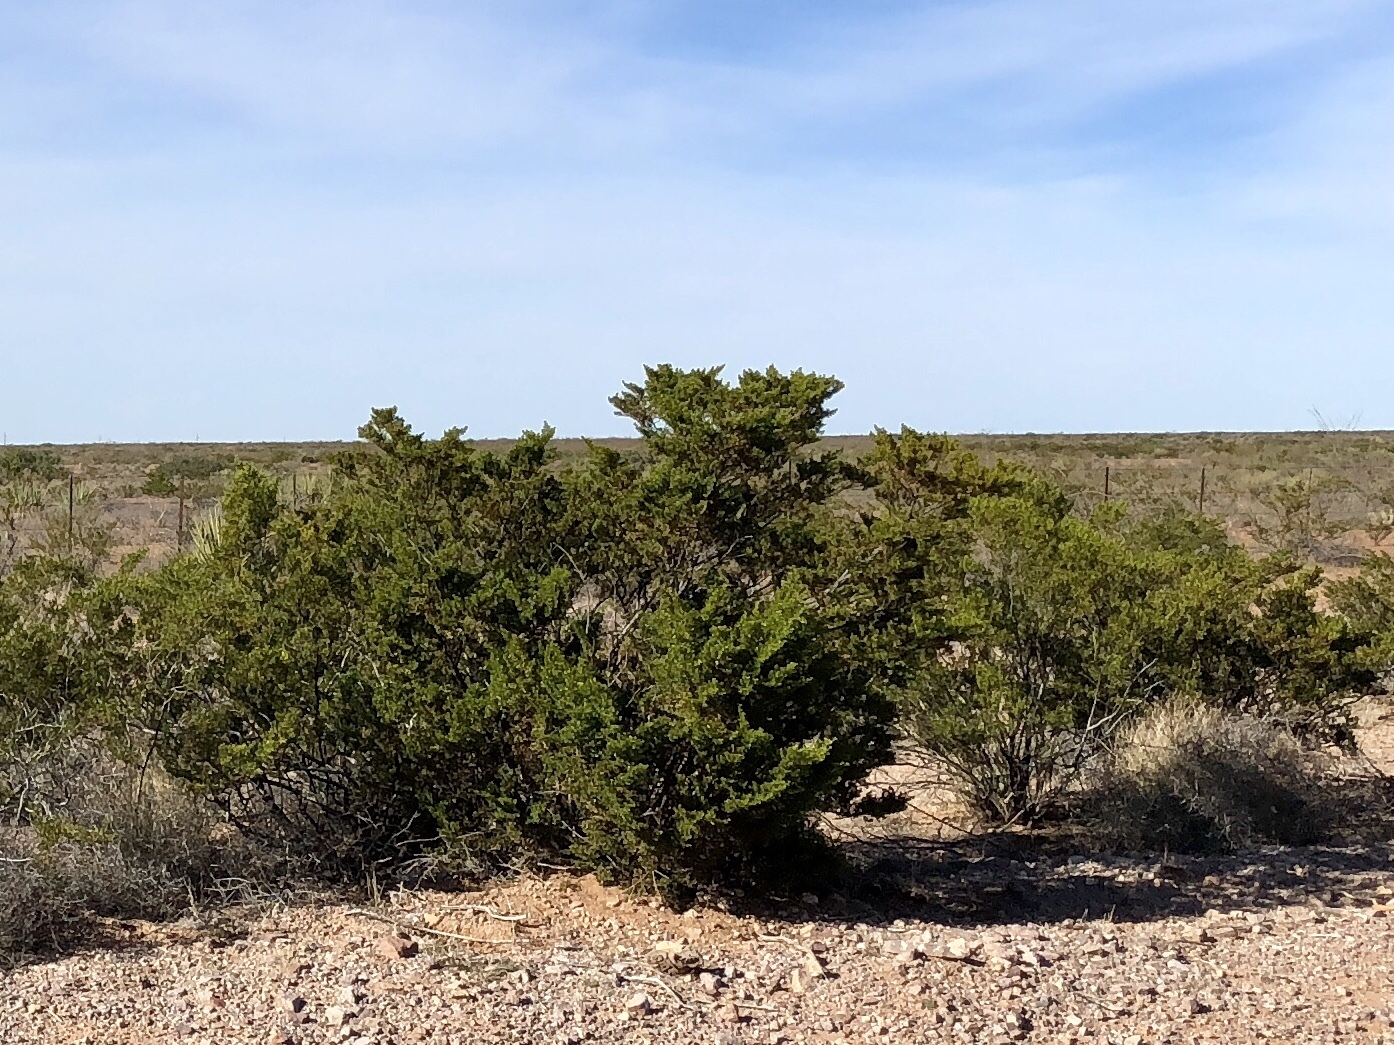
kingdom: Plantae
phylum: Tracheophyta
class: Magnoliopsida
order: Zygophyllales
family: Zygophyllaceae
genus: Larrea
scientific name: Larrea tridentata
